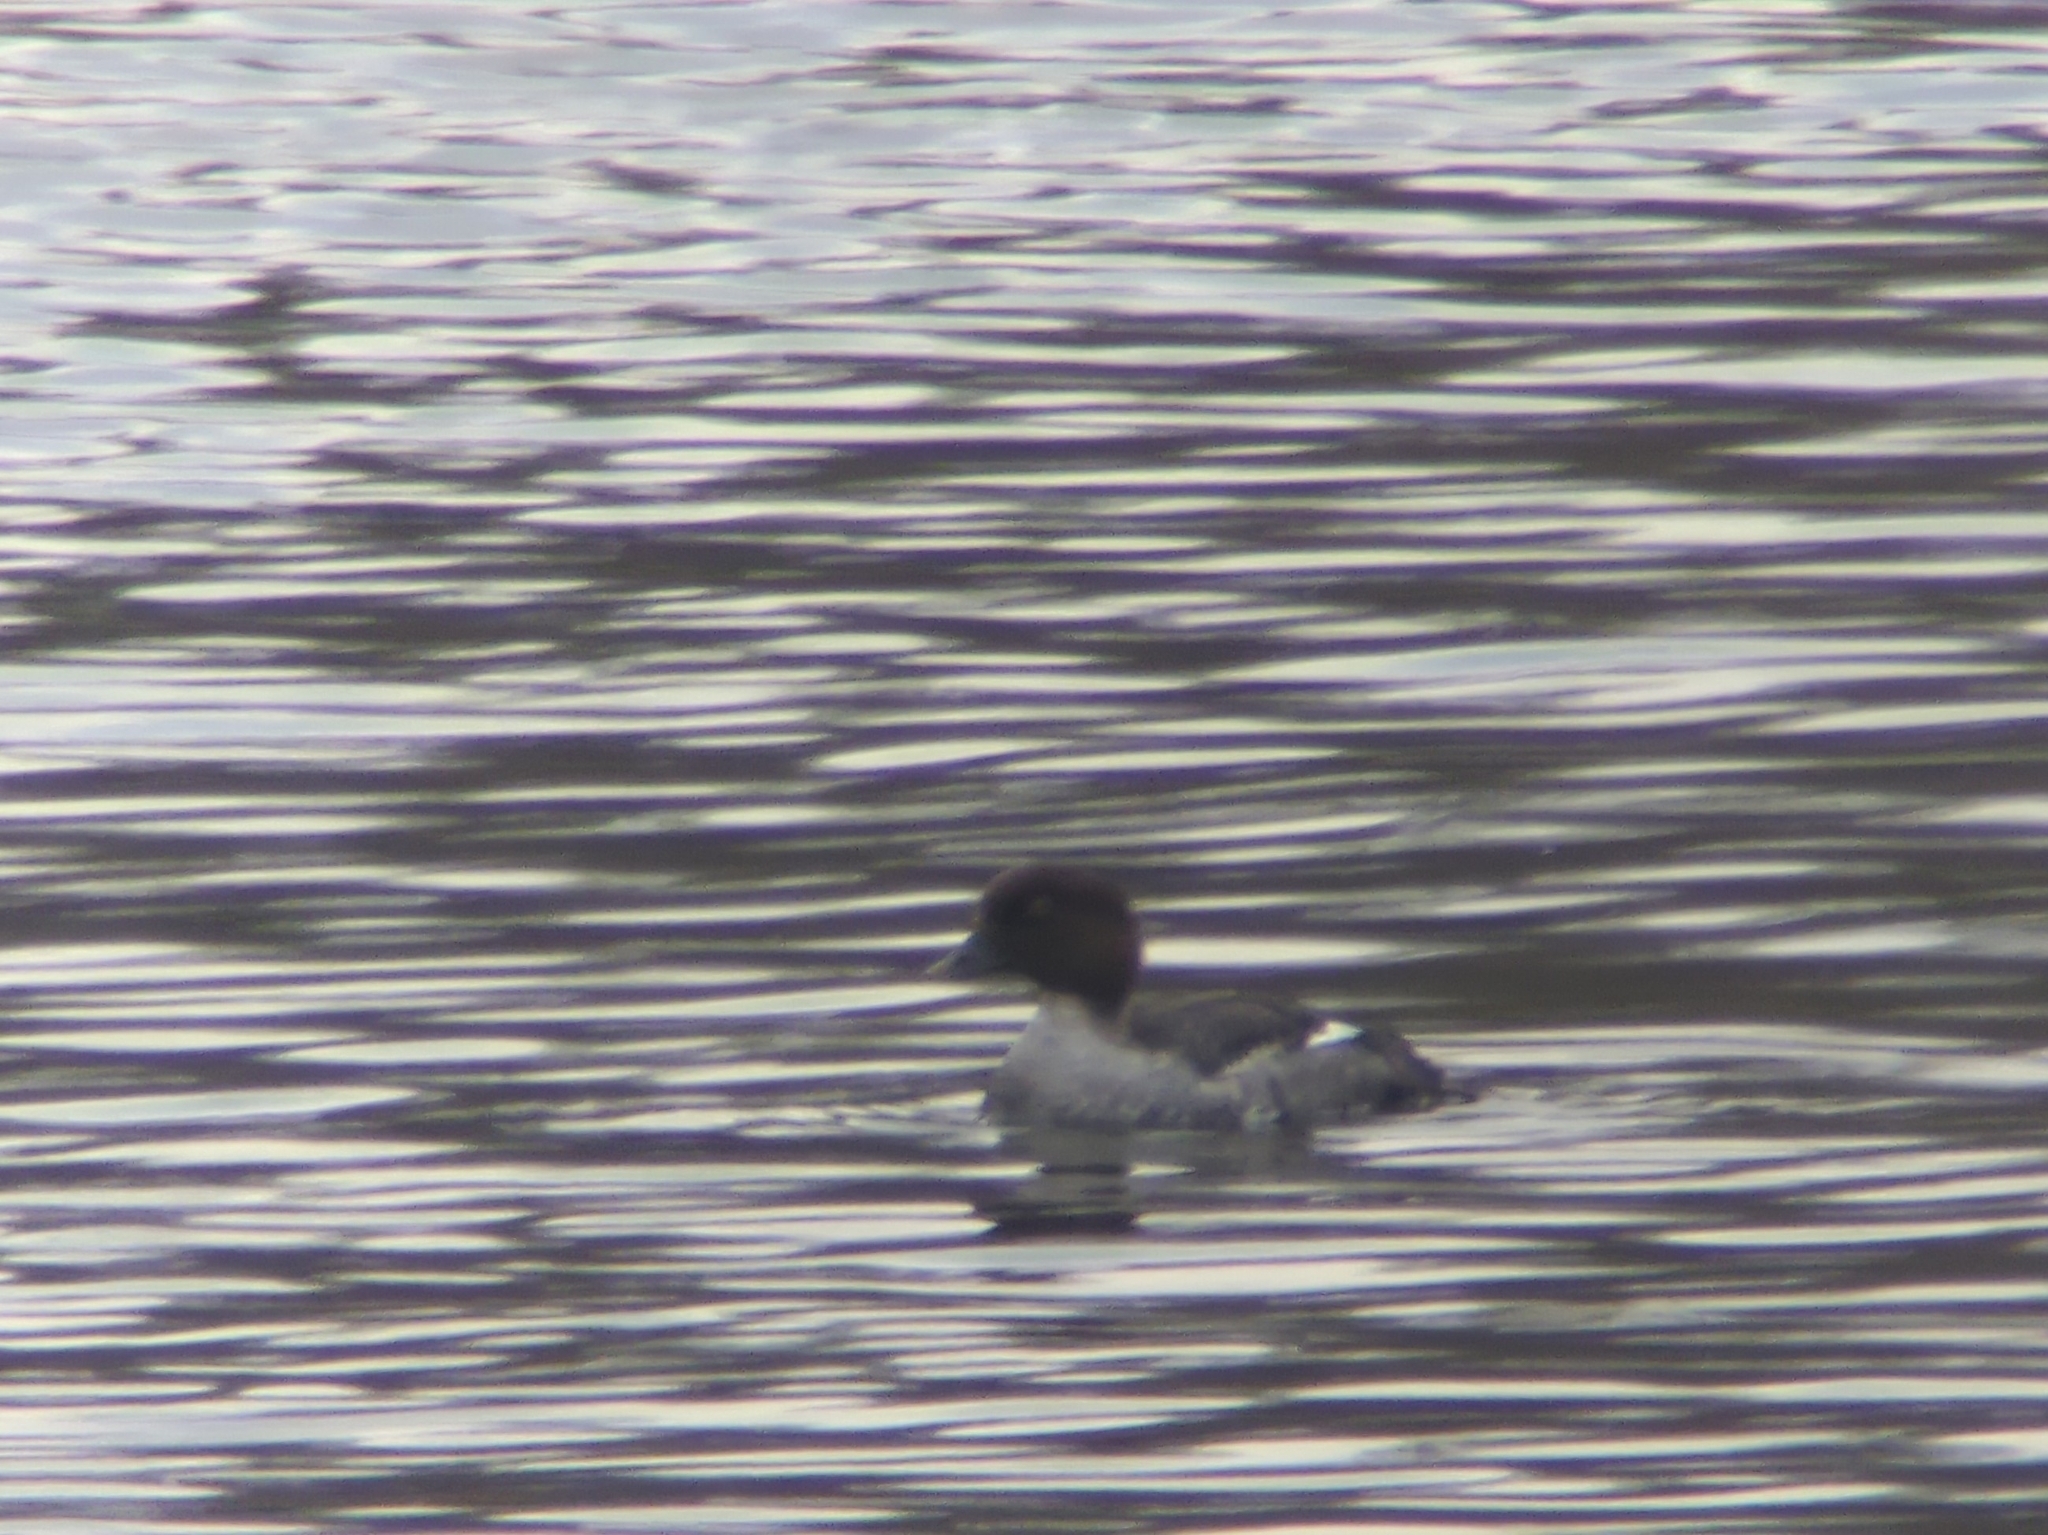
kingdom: Animalia
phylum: Chordata
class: Aves
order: Anseriformes
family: Anatidae
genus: Bucephala
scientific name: Bucephala clangula
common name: Common goldeneye
